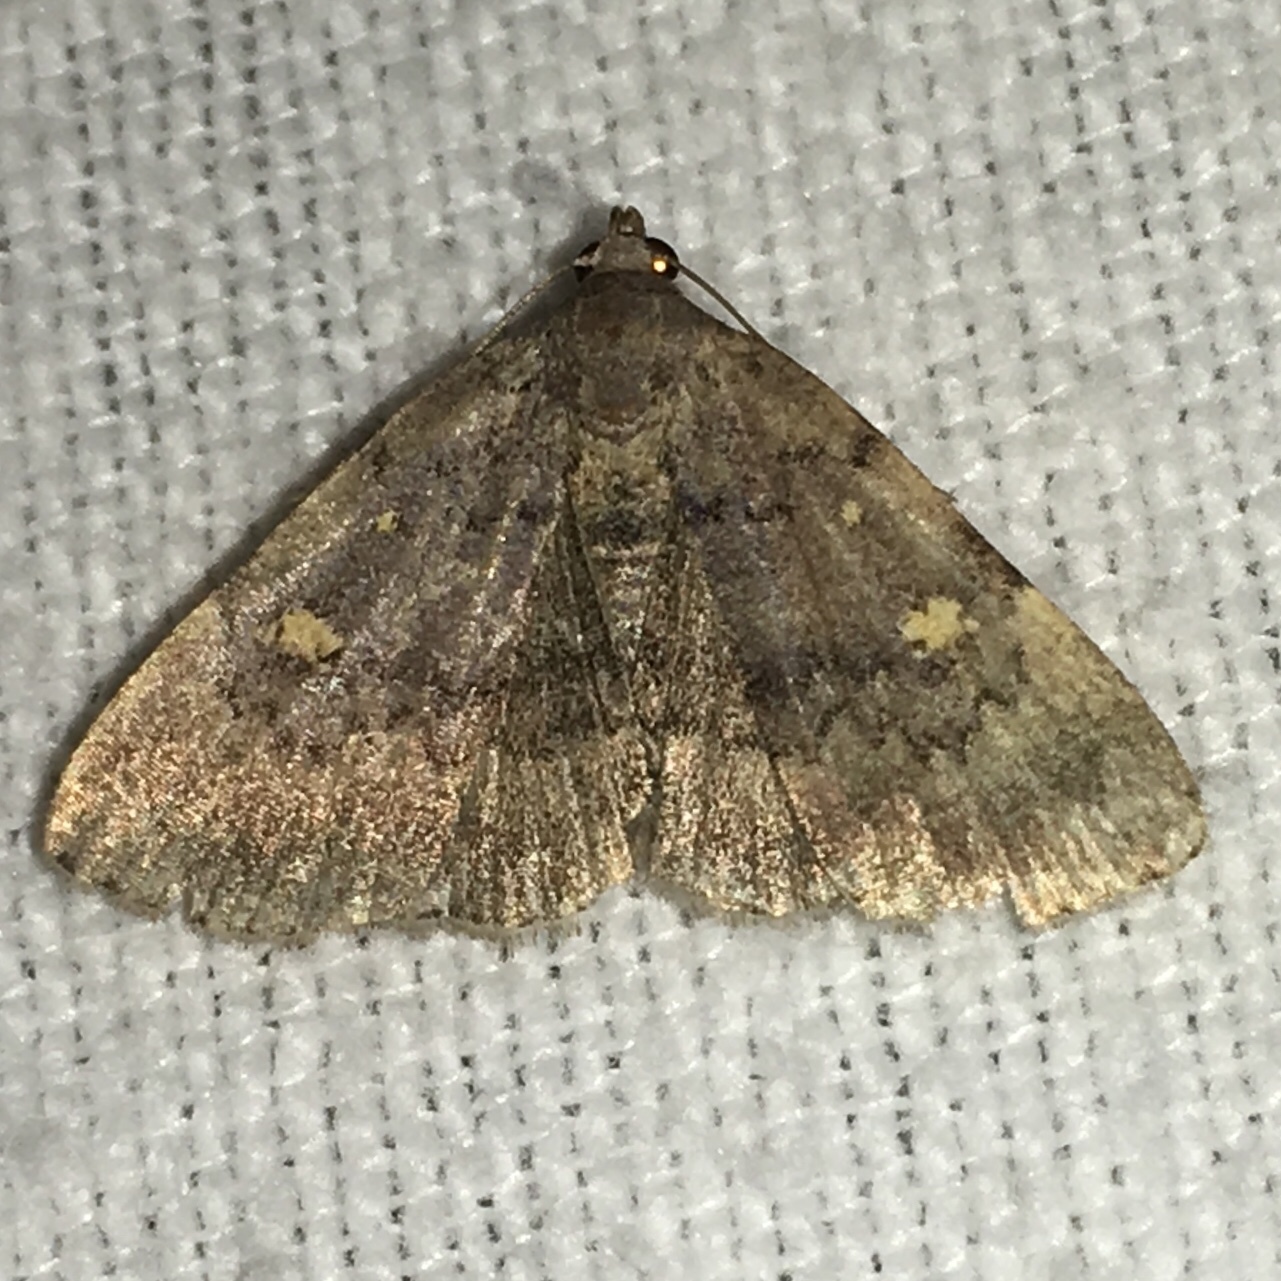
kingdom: Animalia
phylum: Arthropoda
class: Insecta
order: Lepidoptera
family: Erebidae
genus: Idia
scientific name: Idia aemula
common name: Common idia moth
